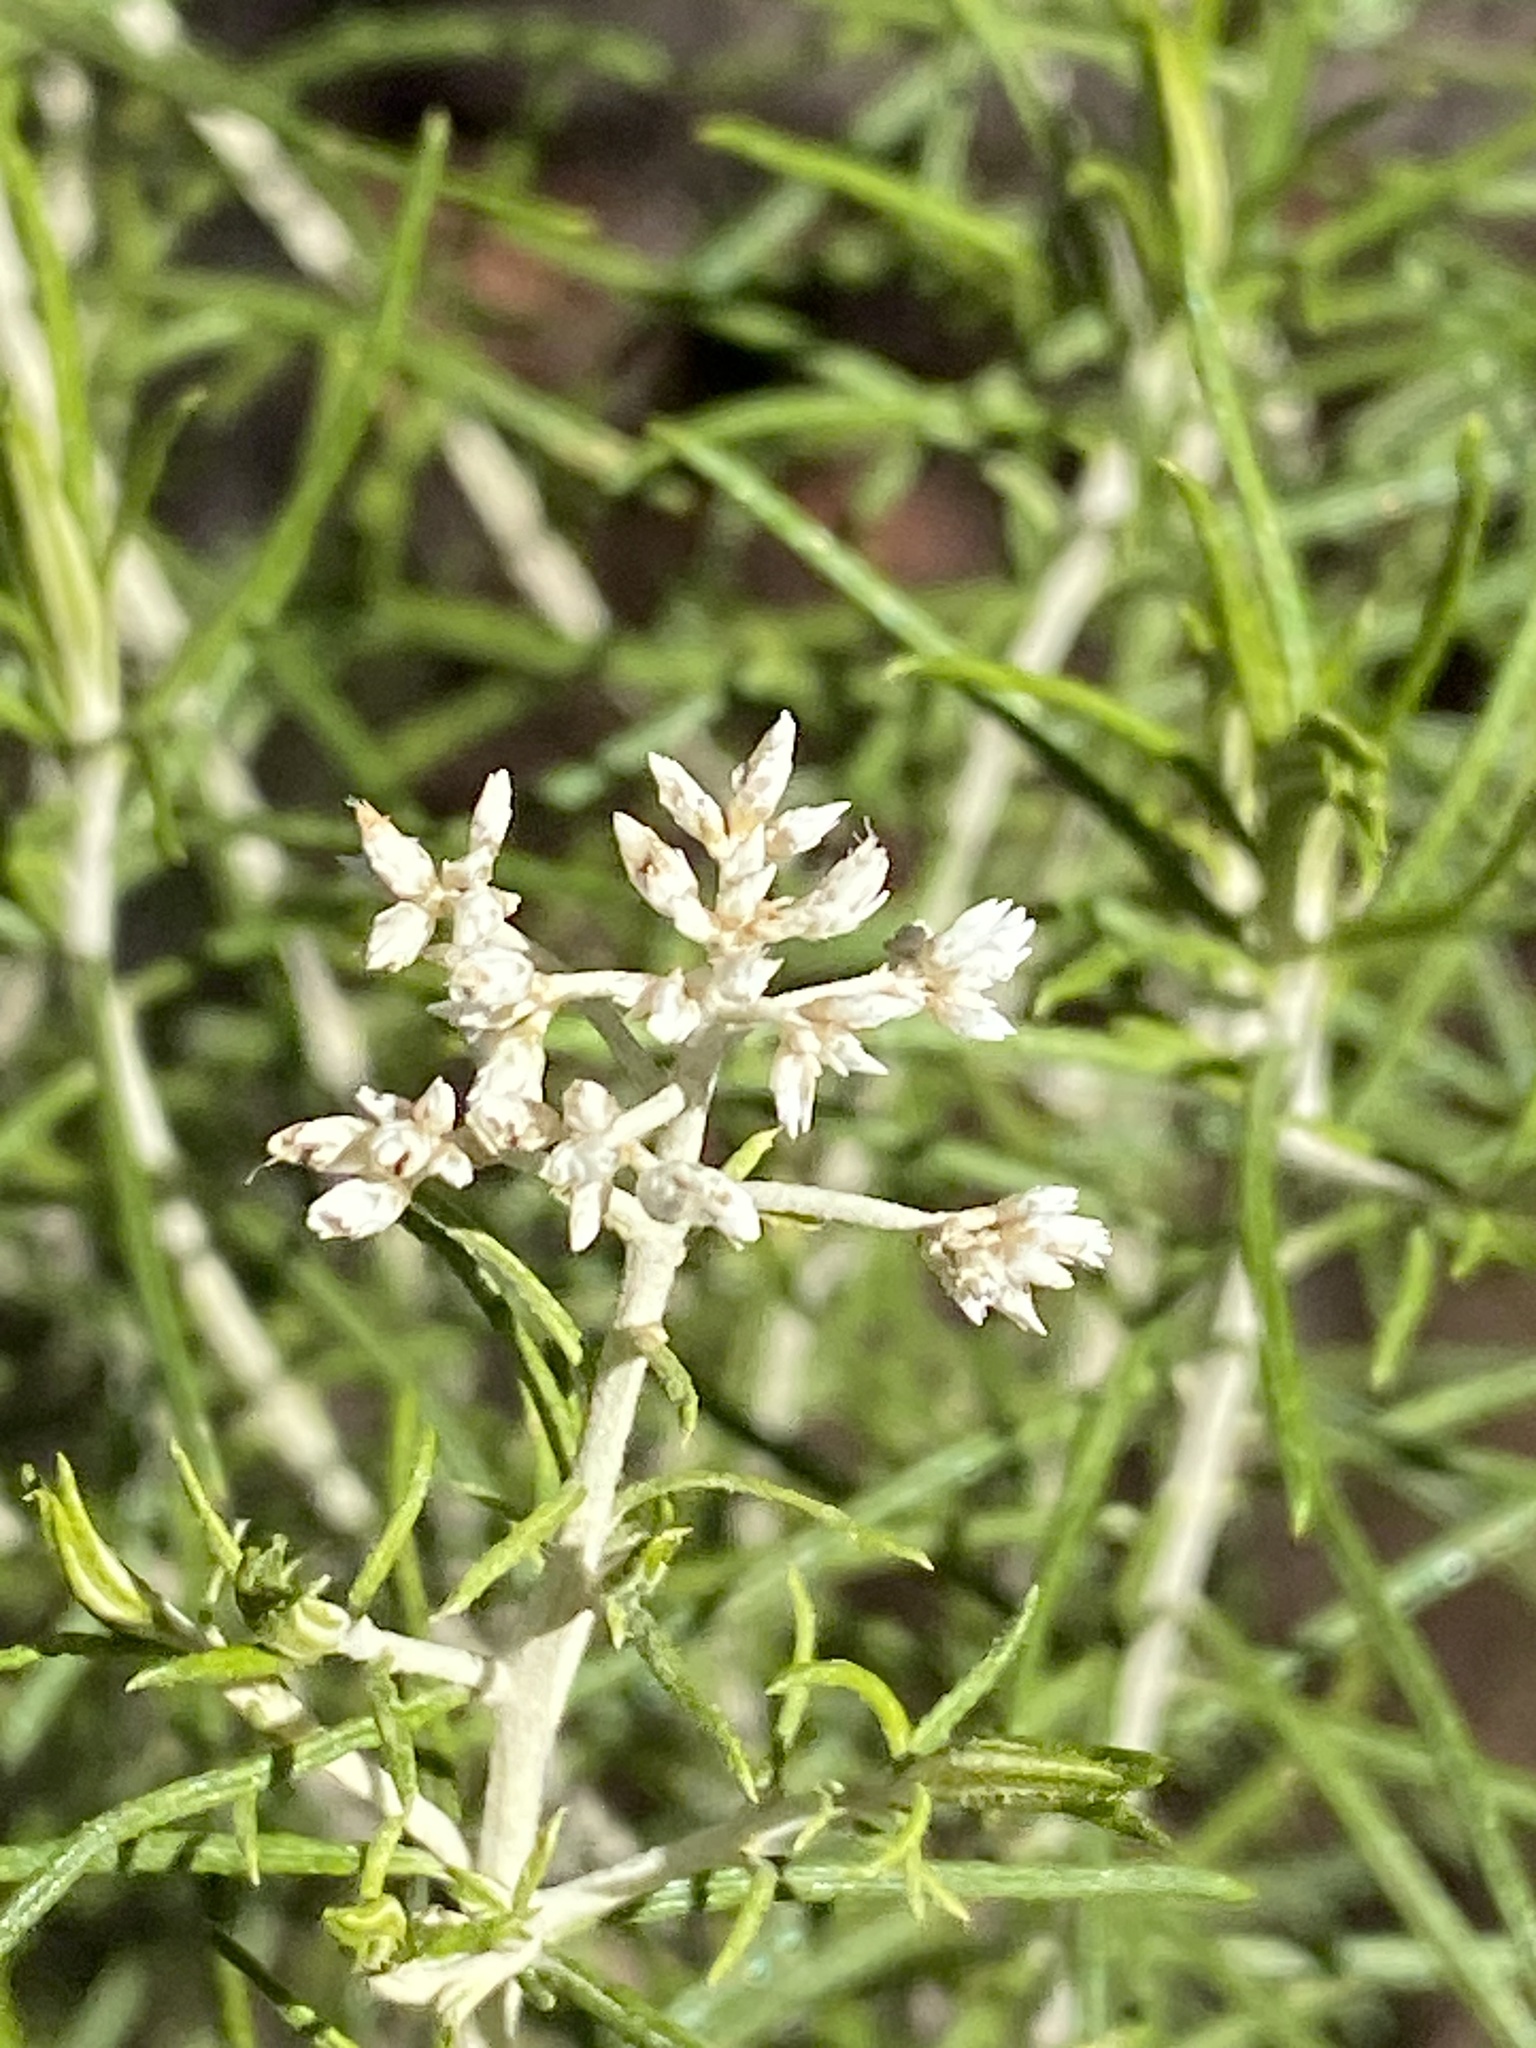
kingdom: Plantae
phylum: Tracheophyta
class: Magnoliopsida
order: Asterales
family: Asteraceae
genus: Cassinia
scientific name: Cassinia laevis
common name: Coughbush
